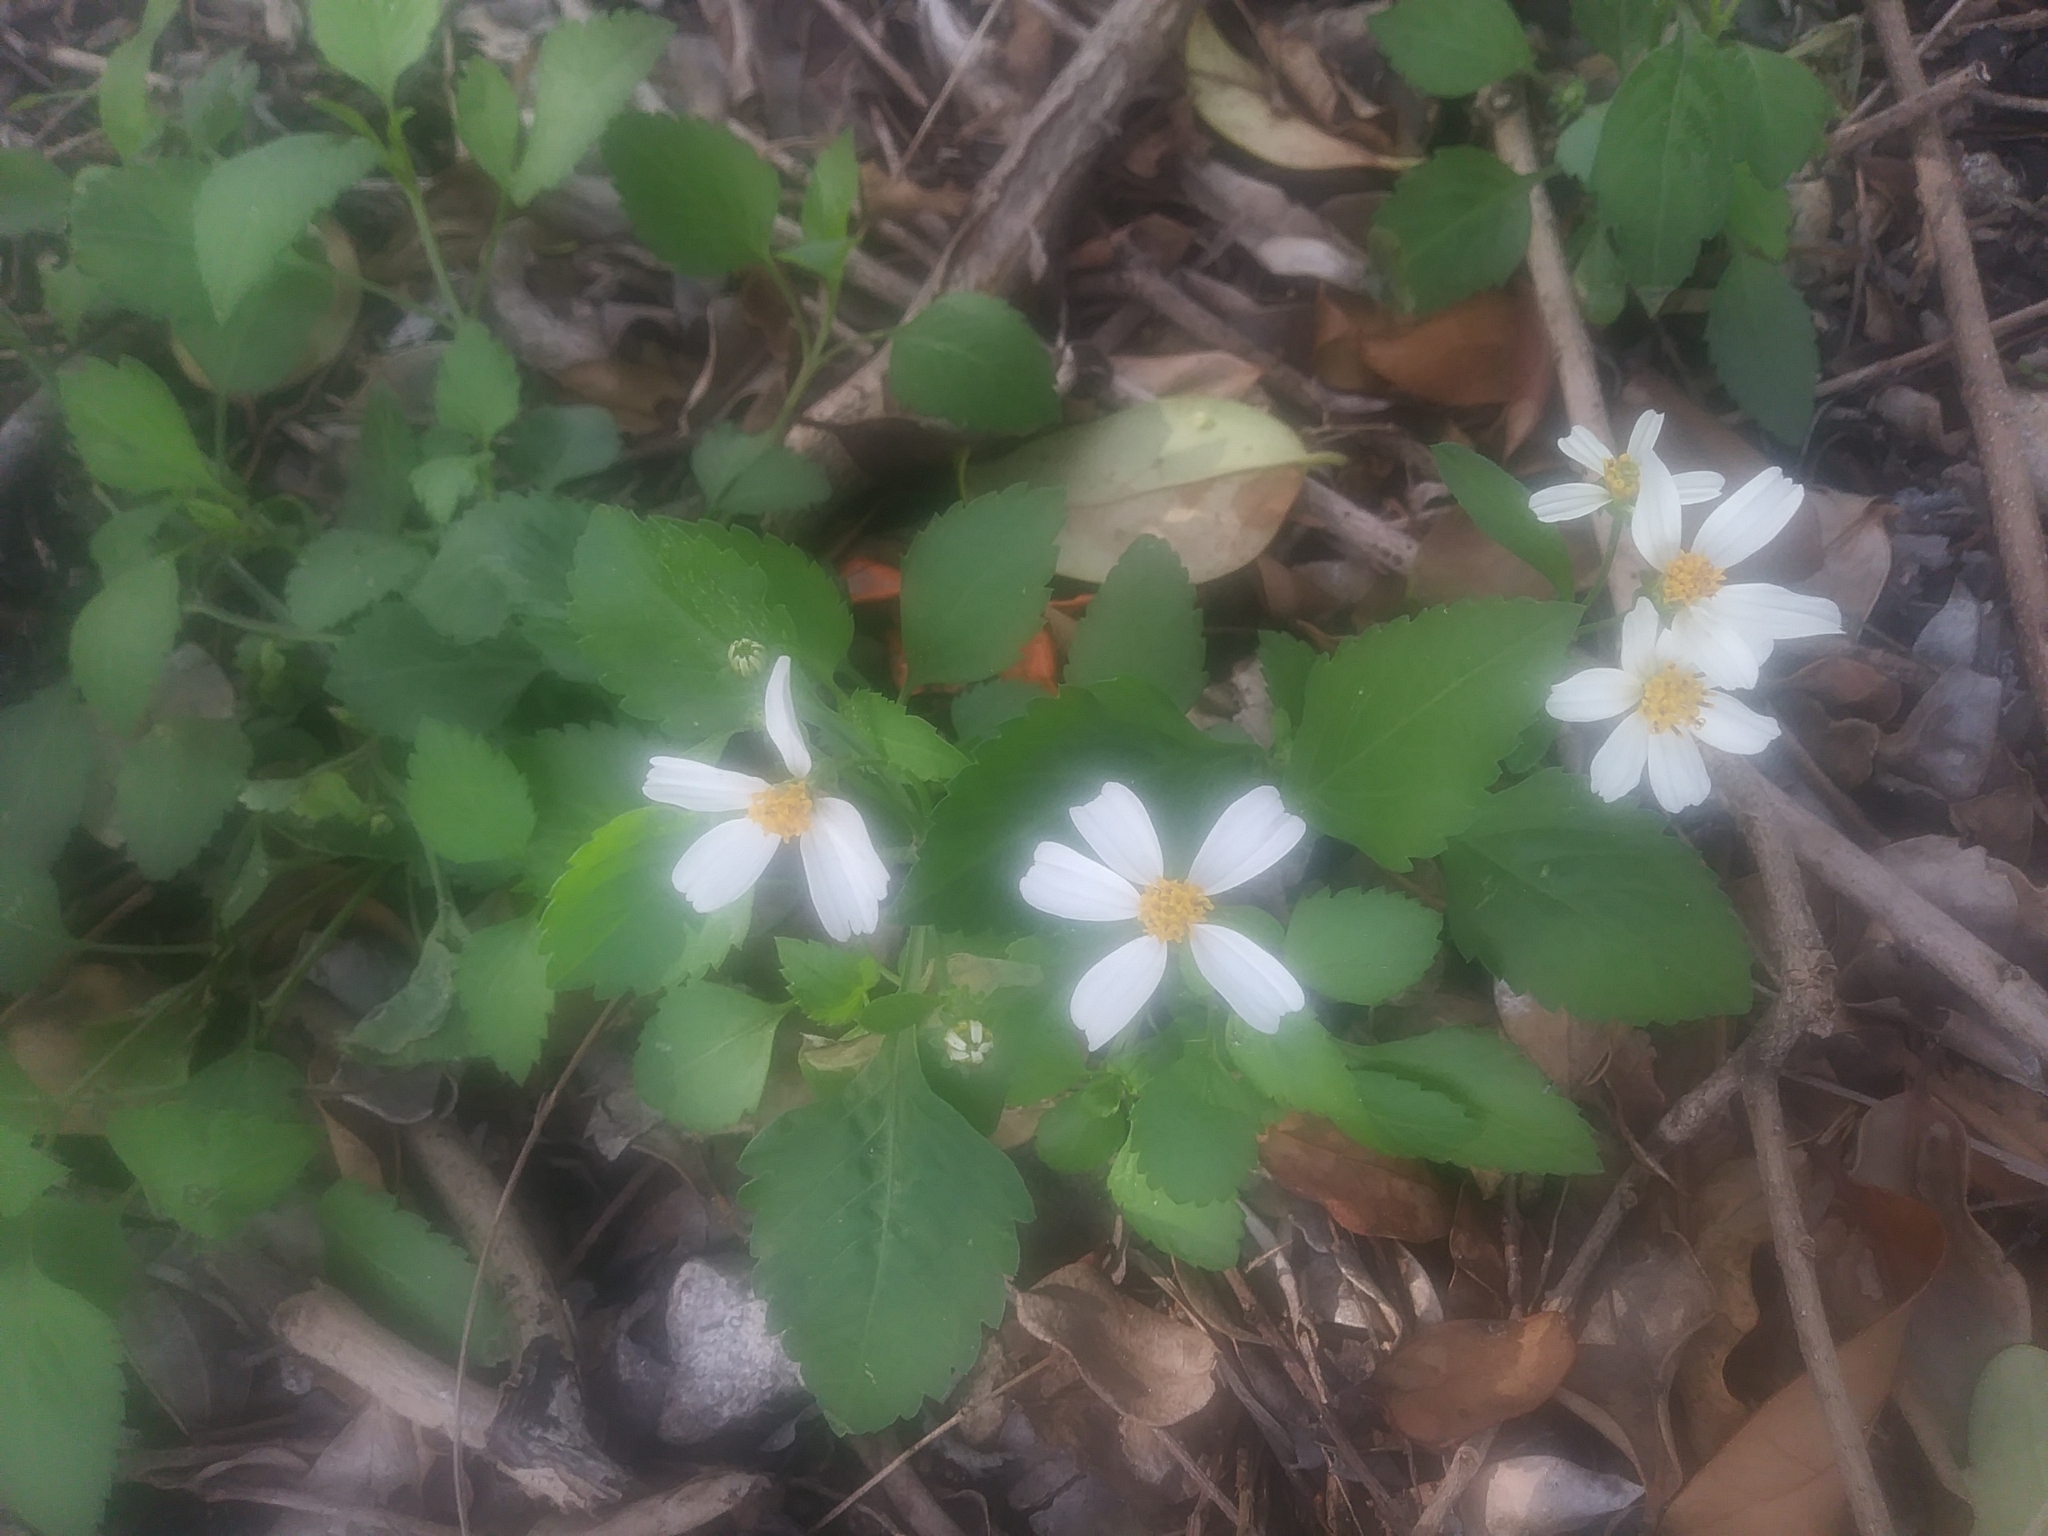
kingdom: Plantae
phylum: Tracheophyta
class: Magnoliopsida
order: Asterales
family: Asteraceae
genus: Bidens
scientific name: Bidens alba
